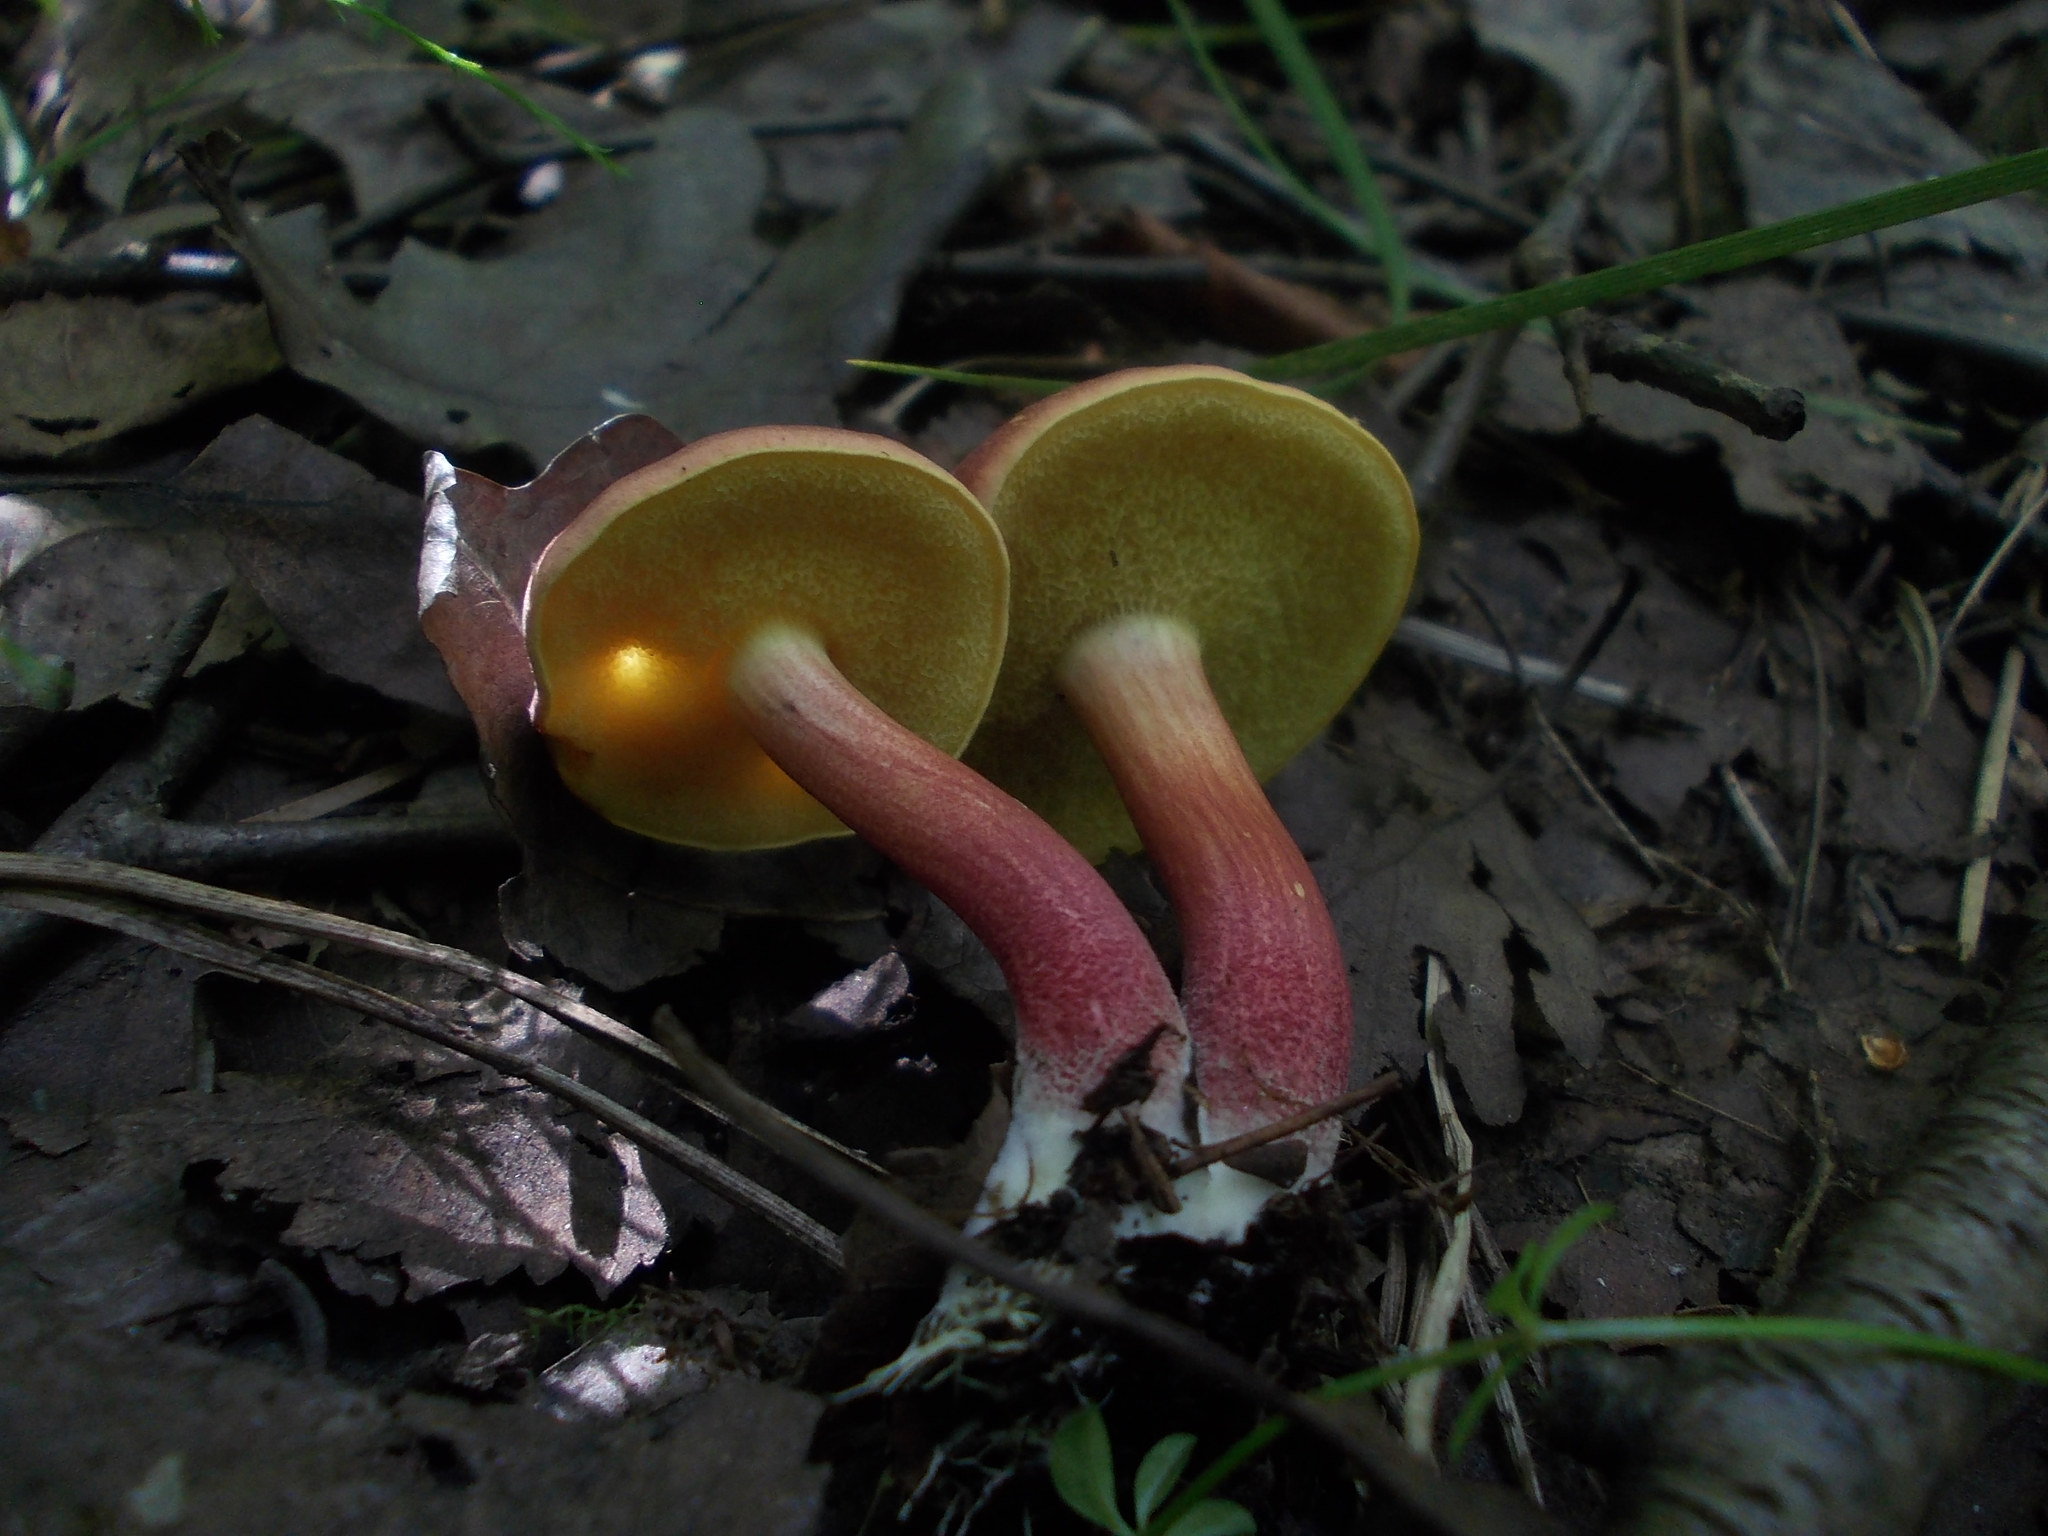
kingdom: Fungi
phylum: Basidiomycota
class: Agaricomycetes
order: Boletales
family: Boletaceae
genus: Xerocomellus
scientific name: Xerocomellus ripariellus
